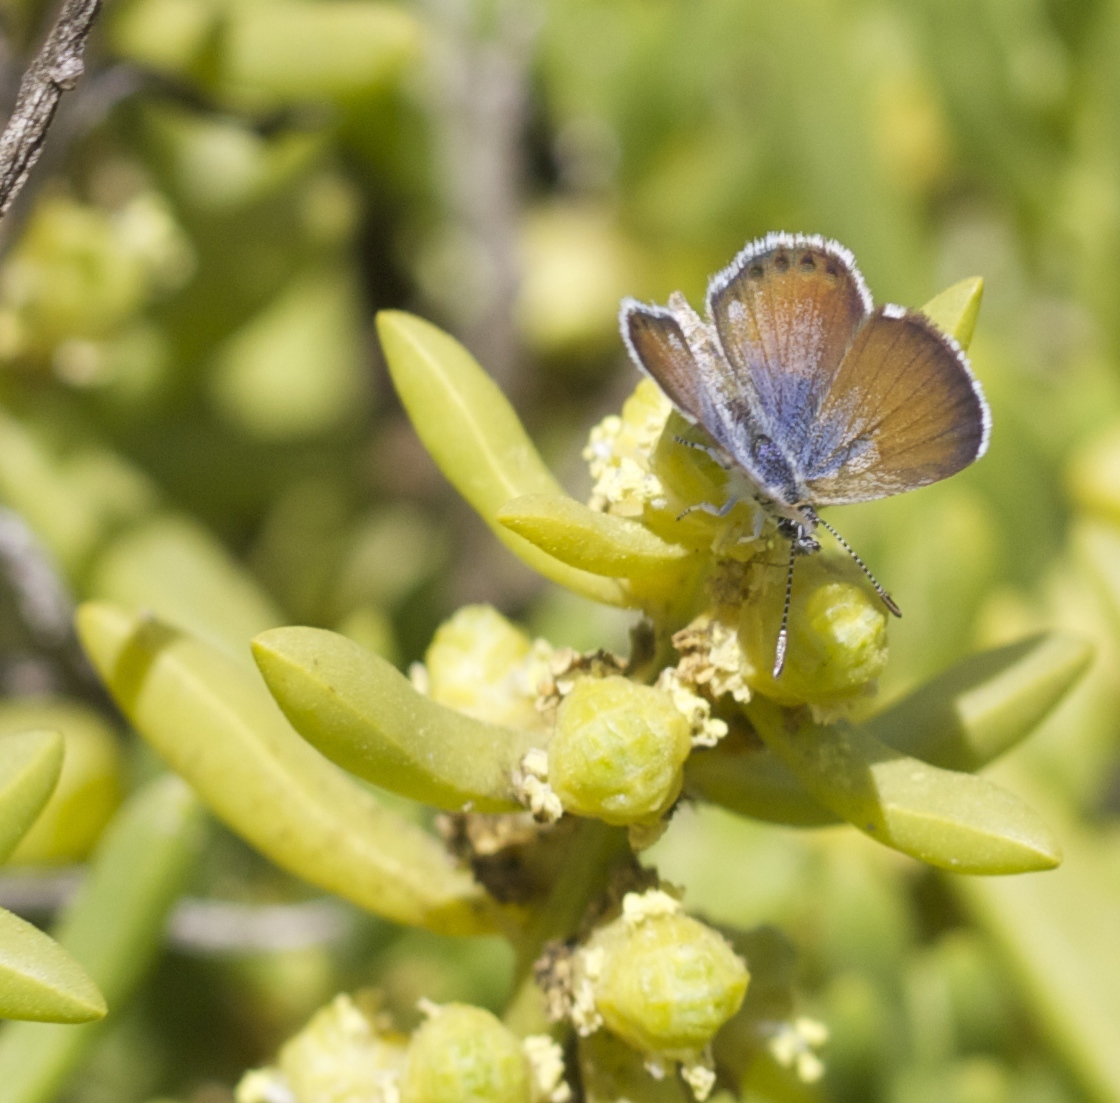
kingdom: Animalia
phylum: Arthropoda
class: Insecta
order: Lepidoptera
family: Lycaenidae
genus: Brephidium
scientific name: Brephidium exilis
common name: Pygmy blue
